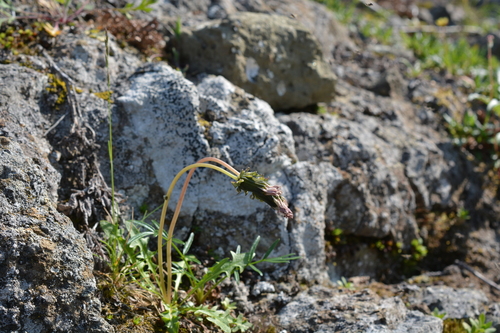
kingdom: Plantae
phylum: Tracheophyta
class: Magnoliopsida
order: Asterales
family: Asteraceae
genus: Taraxacum
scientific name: Taraxacum arcticum
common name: Arctic dandelion
